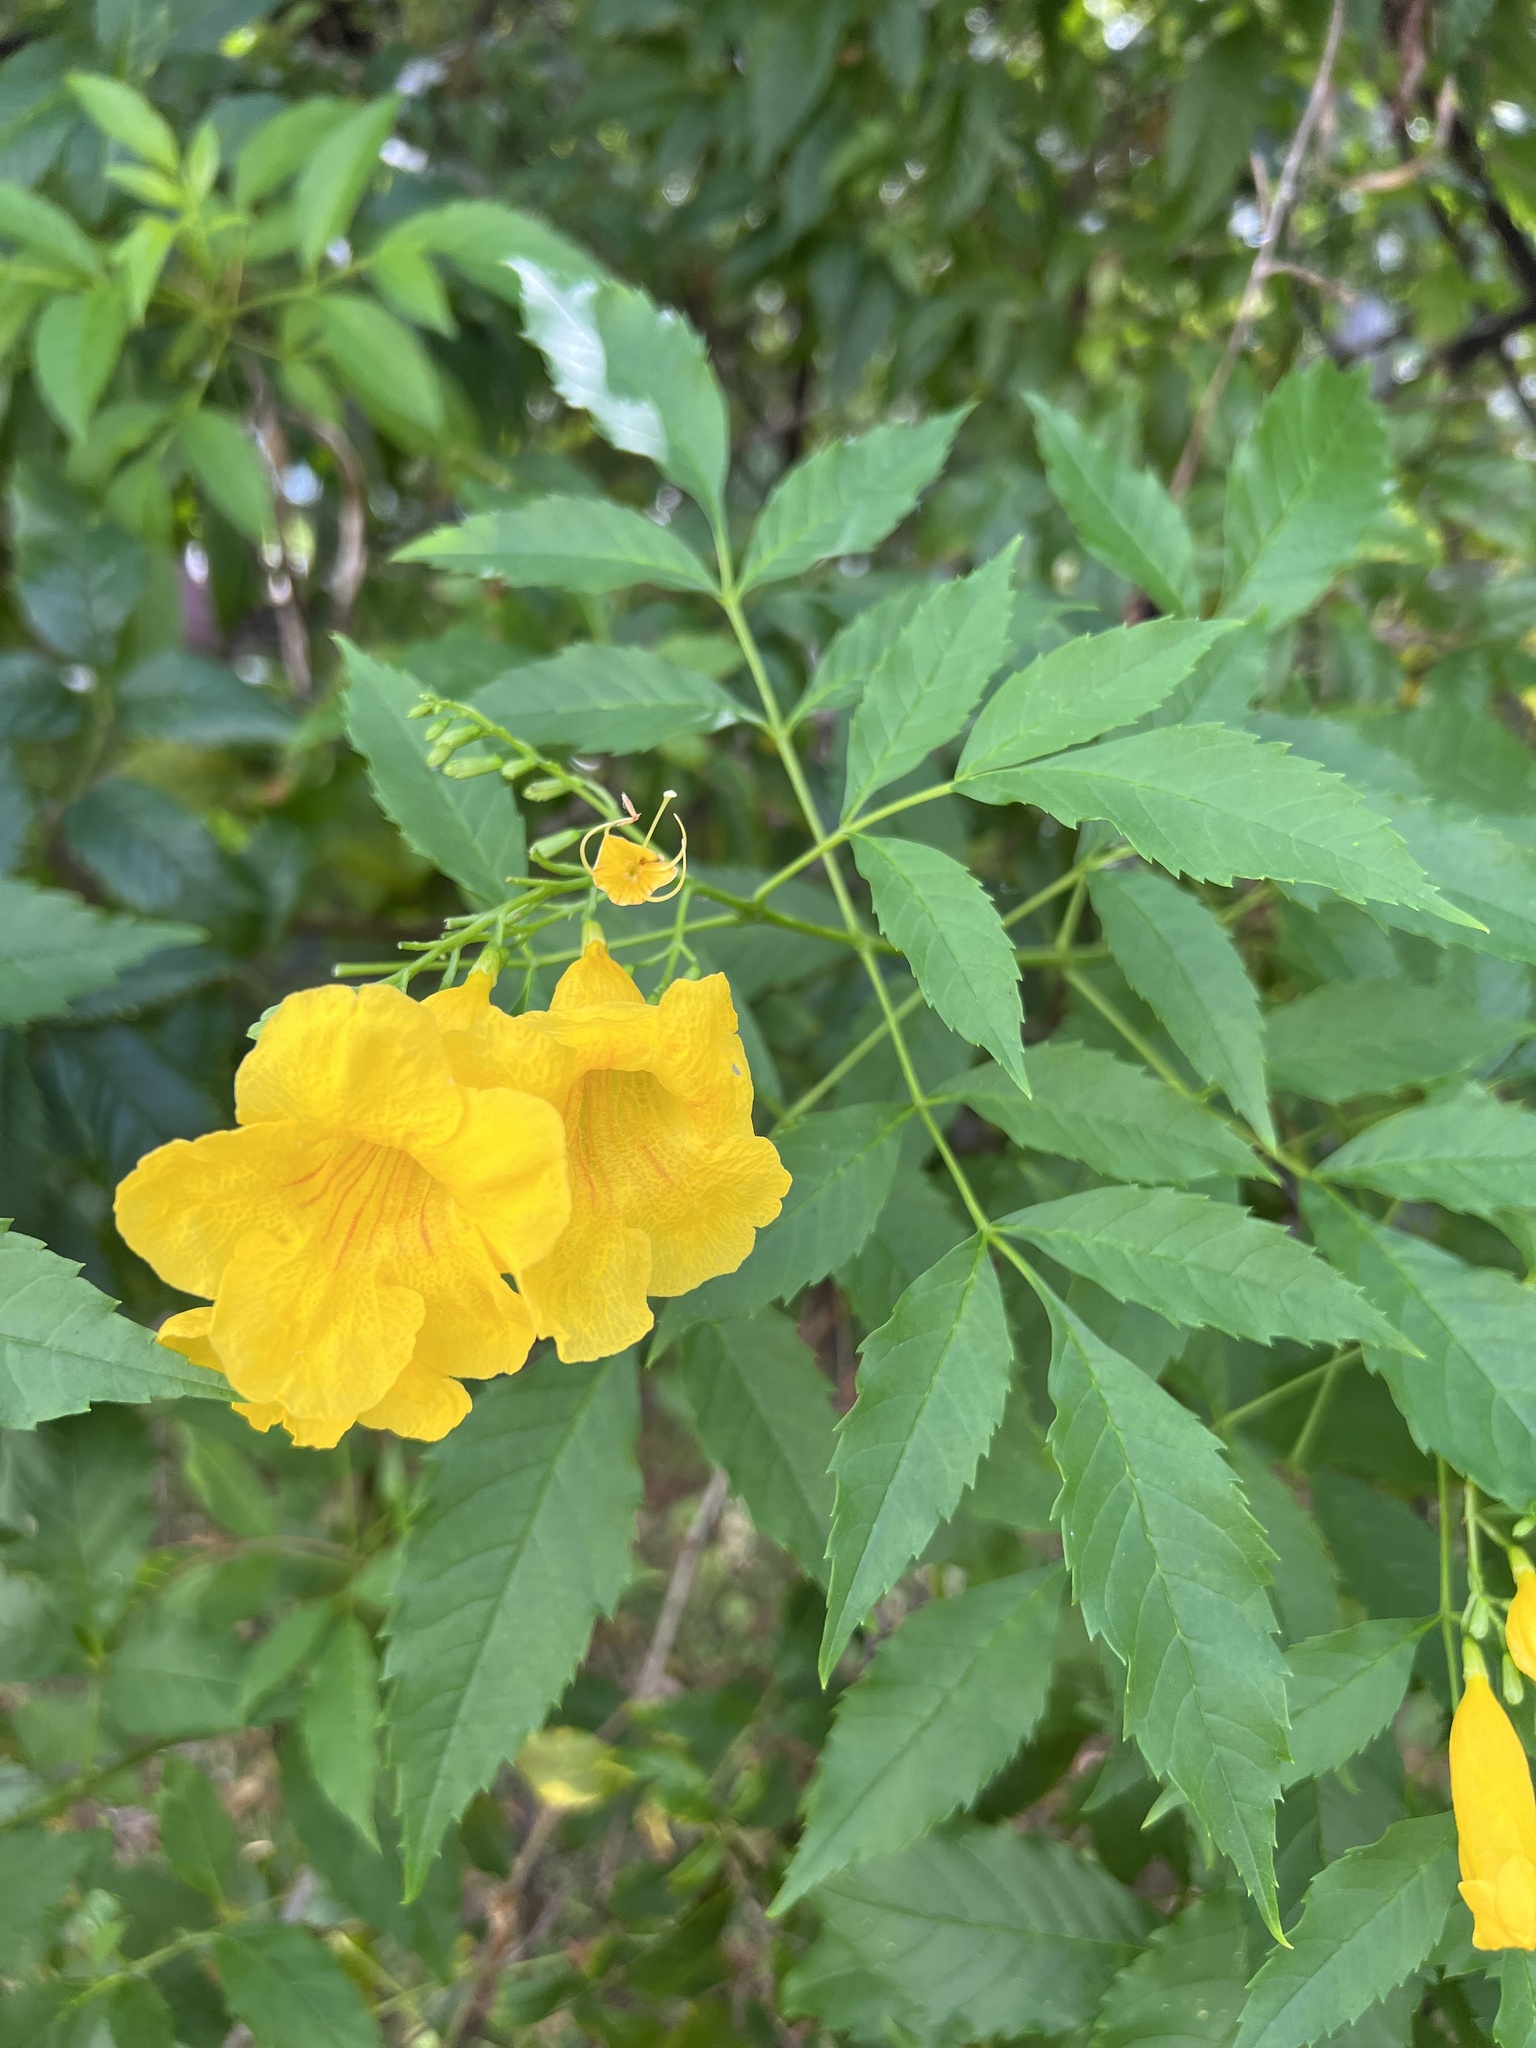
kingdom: Plantae
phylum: Tracheophyta
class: Magnoliopsida
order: Lamiales
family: Bignoniaceae
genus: Tecoma
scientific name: Tecoma stans
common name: Yellow trumpetbush
